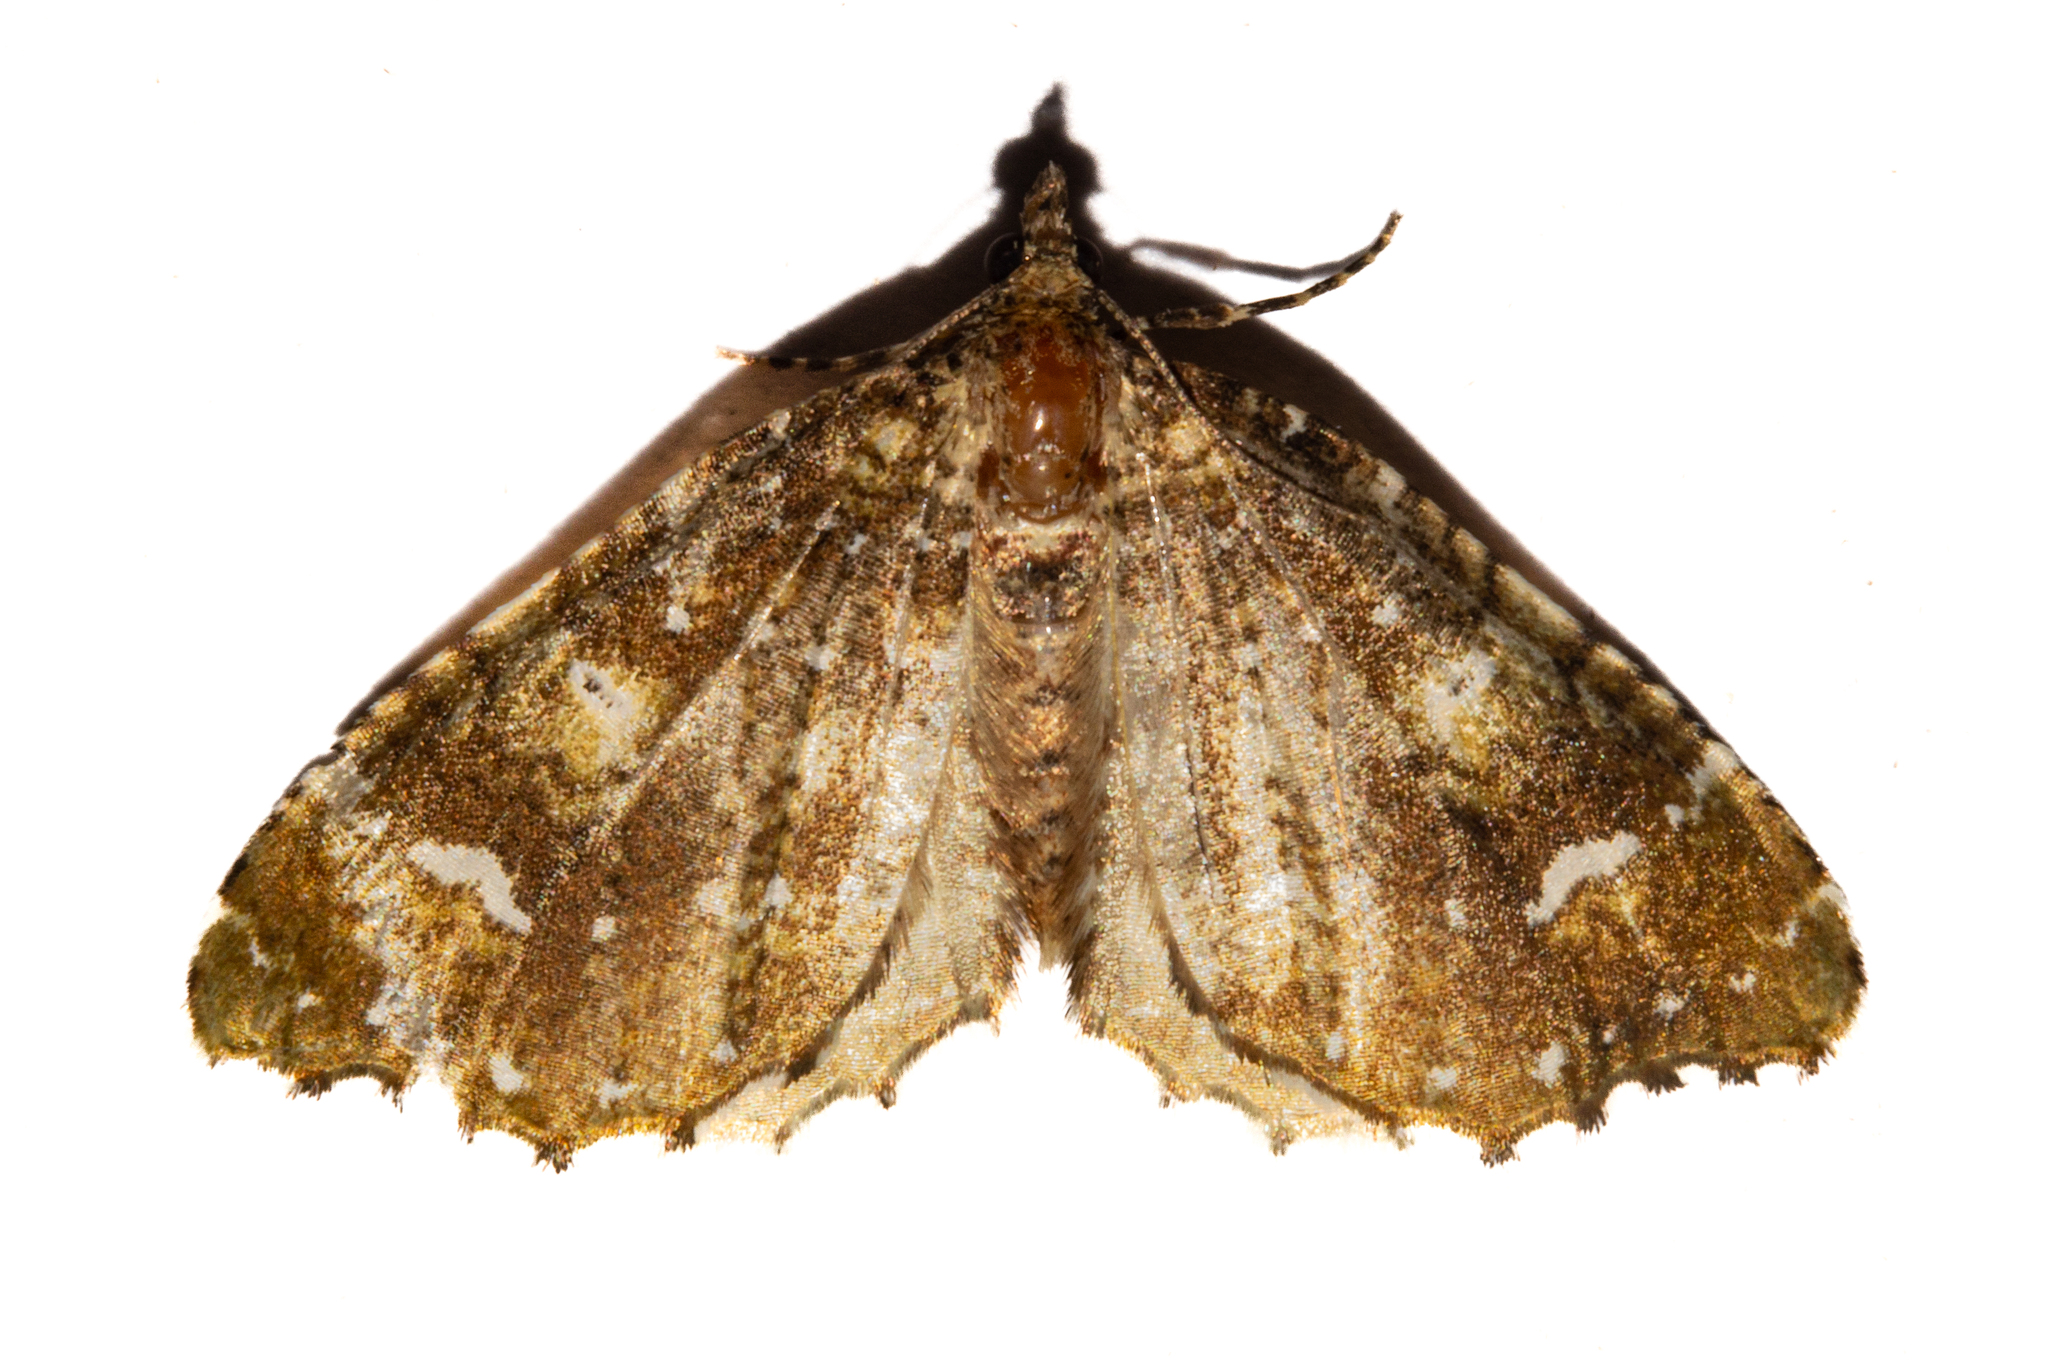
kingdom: Animalia
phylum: Arthropoda
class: Insecta
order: Lepidoptera
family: Geometridae
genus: Asaphodes
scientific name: Asaphodes limonodes
